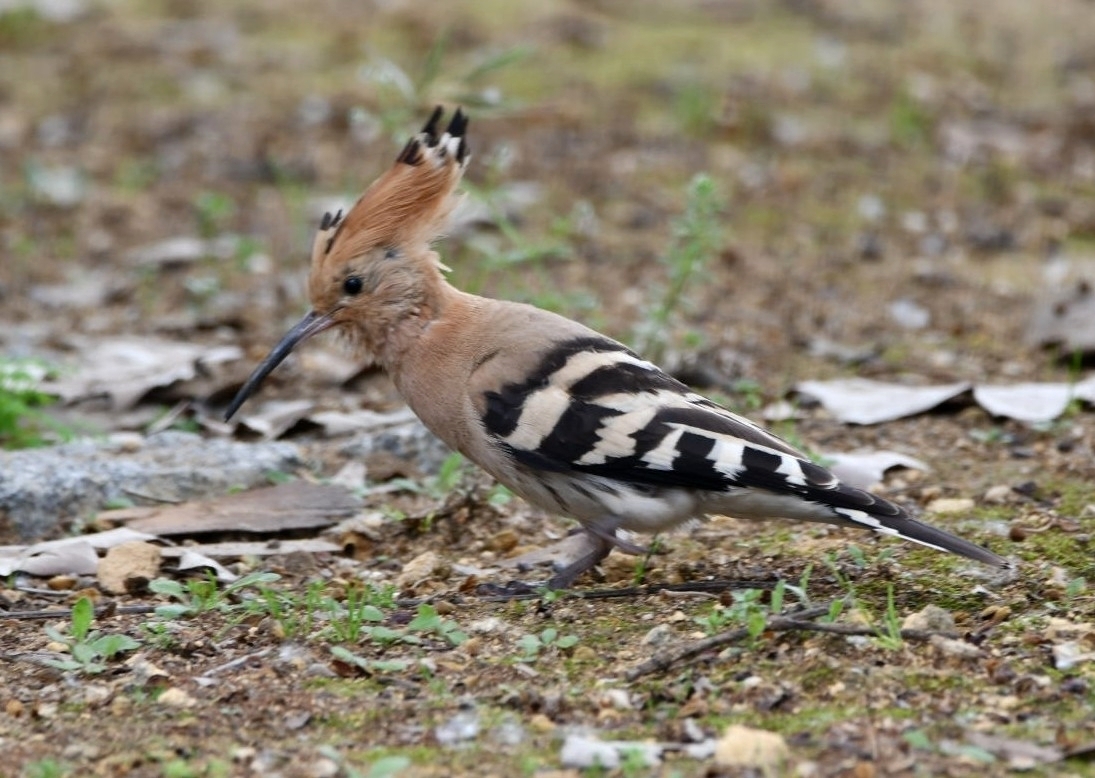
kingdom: Animalia
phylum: Chordata
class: Aves
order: Bucerotiformes
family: Upupidae
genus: Upupa
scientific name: Upupa epops
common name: Eurasian hoopoe
